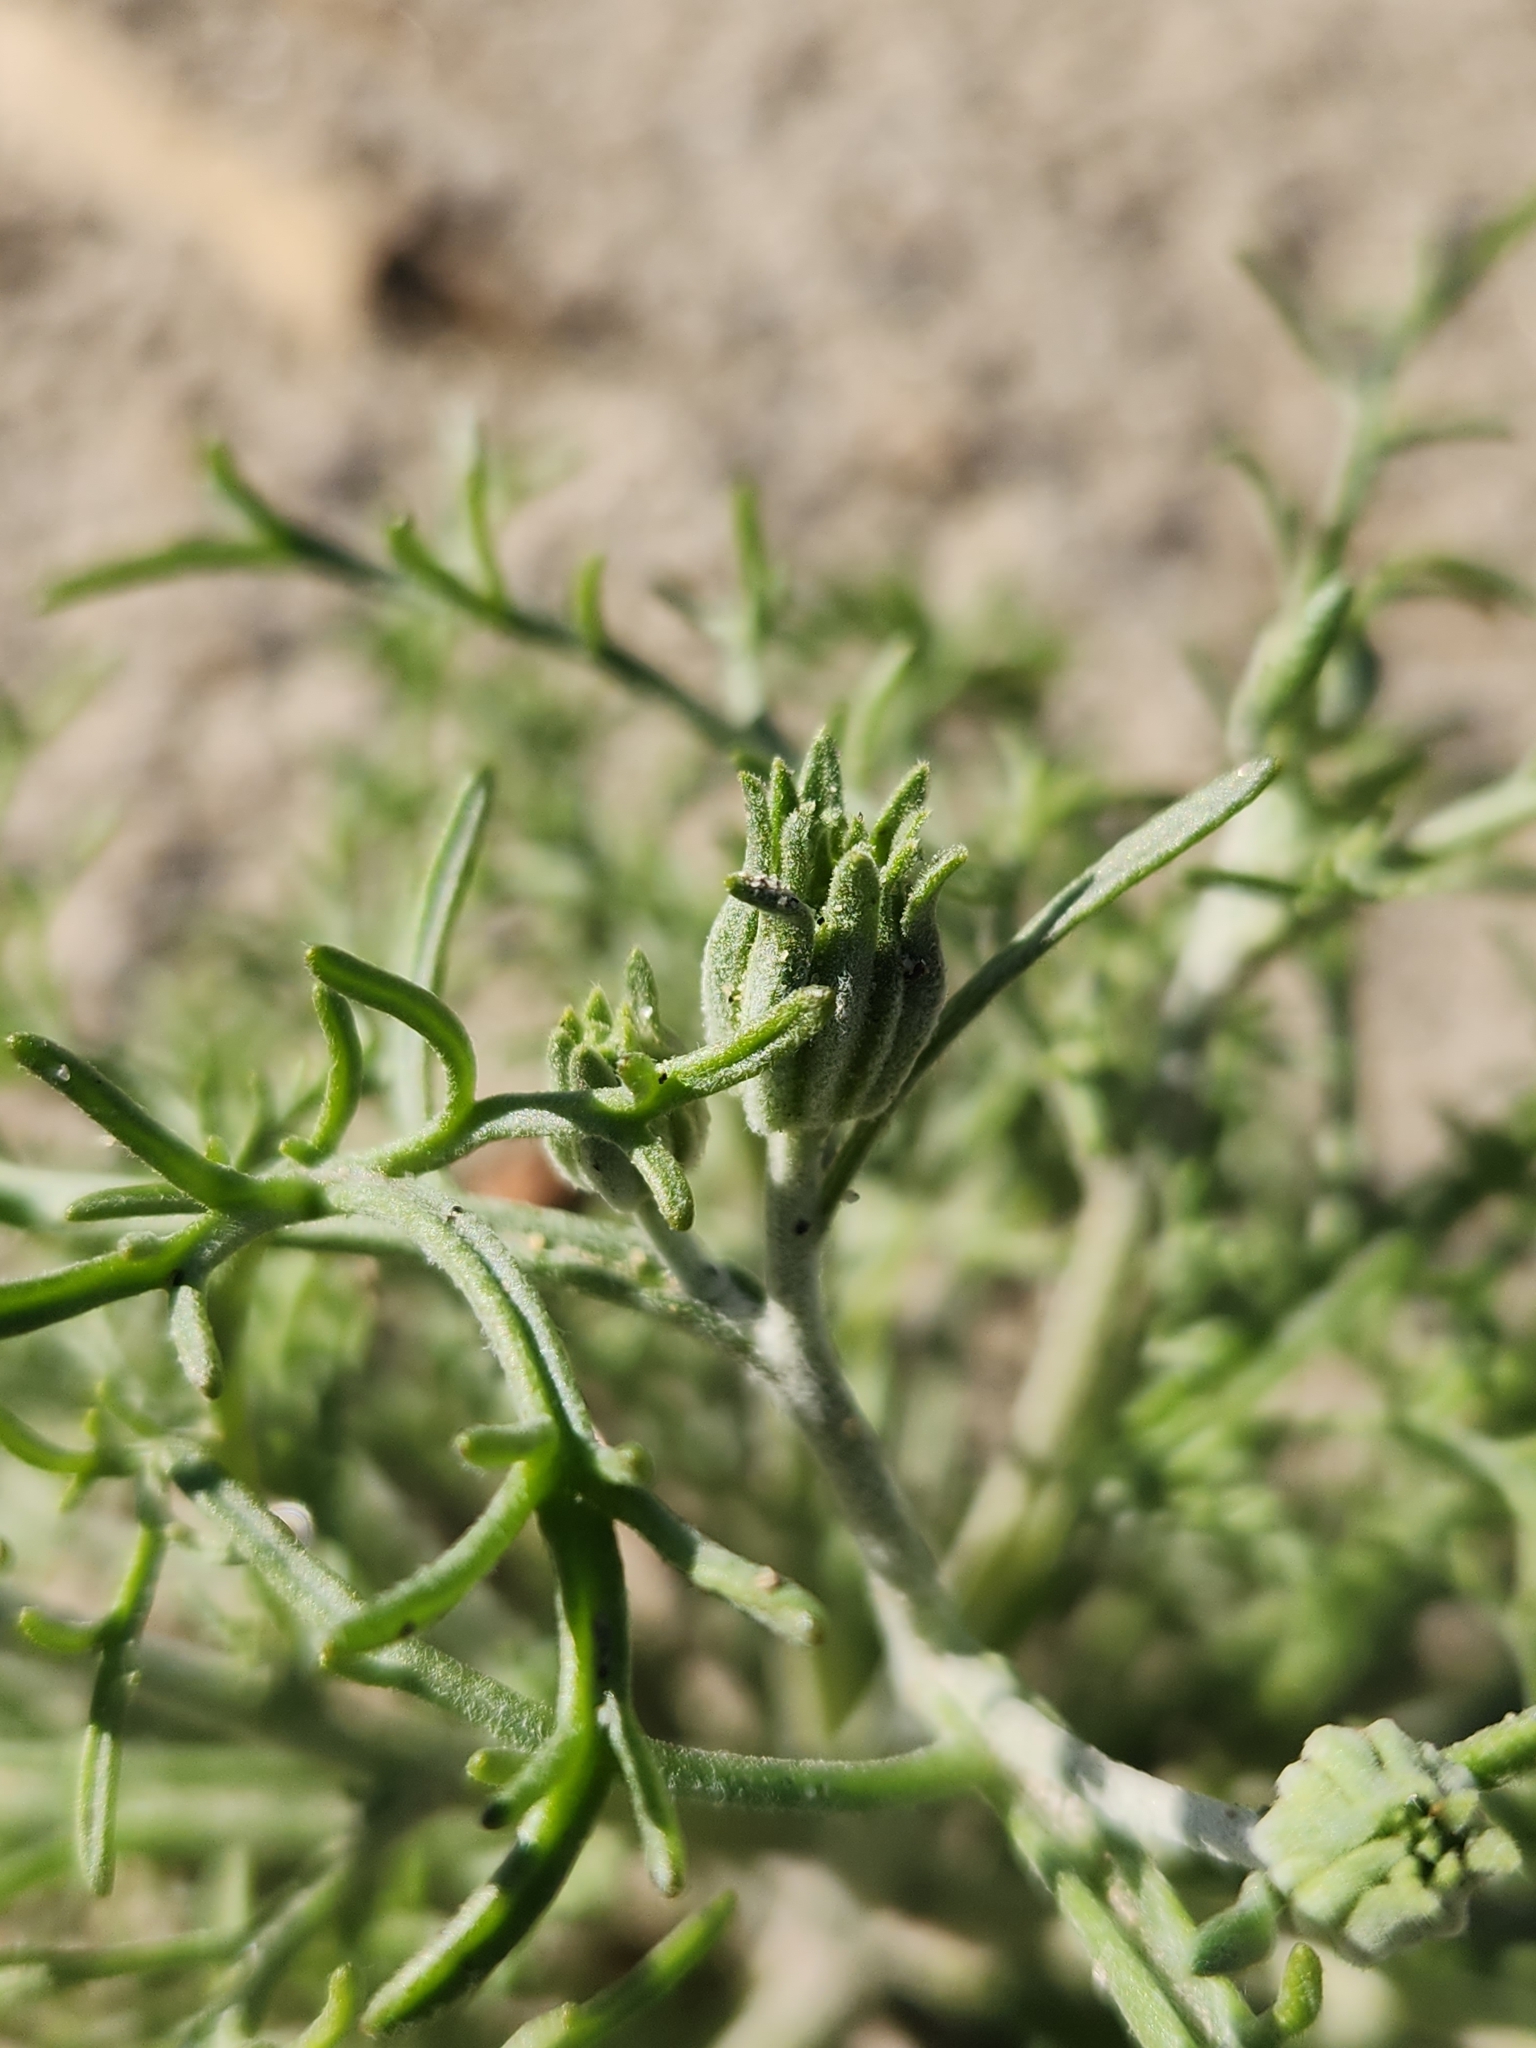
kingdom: Plantae
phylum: Tracheophyta
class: Magnoliopsida
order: Asterales
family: Asteraceae
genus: Chaenactis
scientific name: Chaenactis stevioides
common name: Desert pincushion
